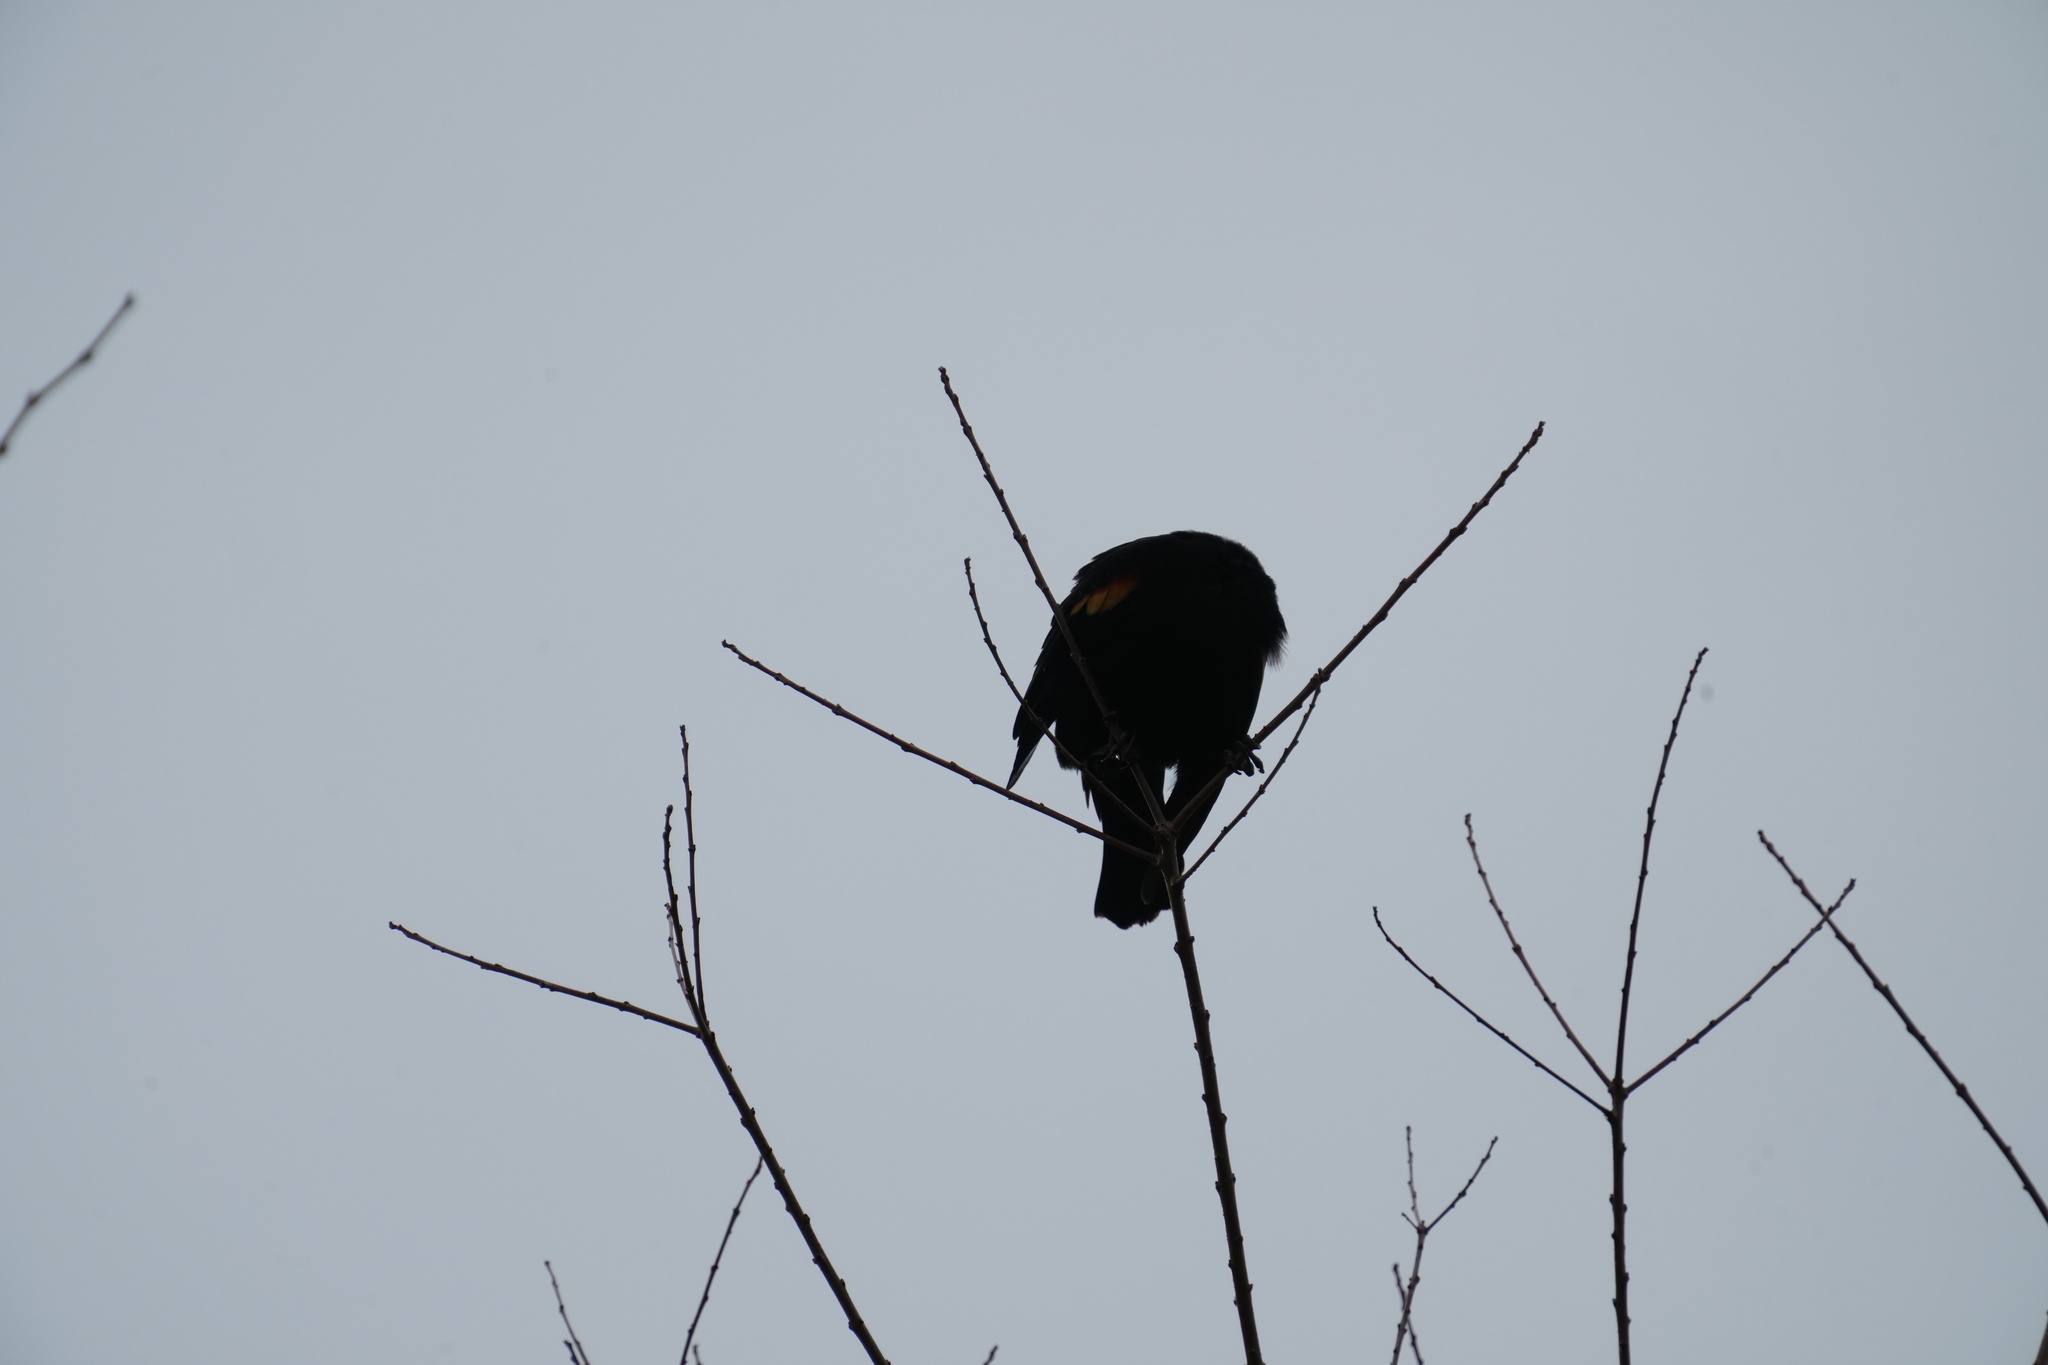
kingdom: Animalia
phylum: Chordata
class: Aves
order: Passeriformes
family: Icteridae
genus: Agelaius
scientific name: Agelaius phoeniceus
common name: Red-winged blackbird
